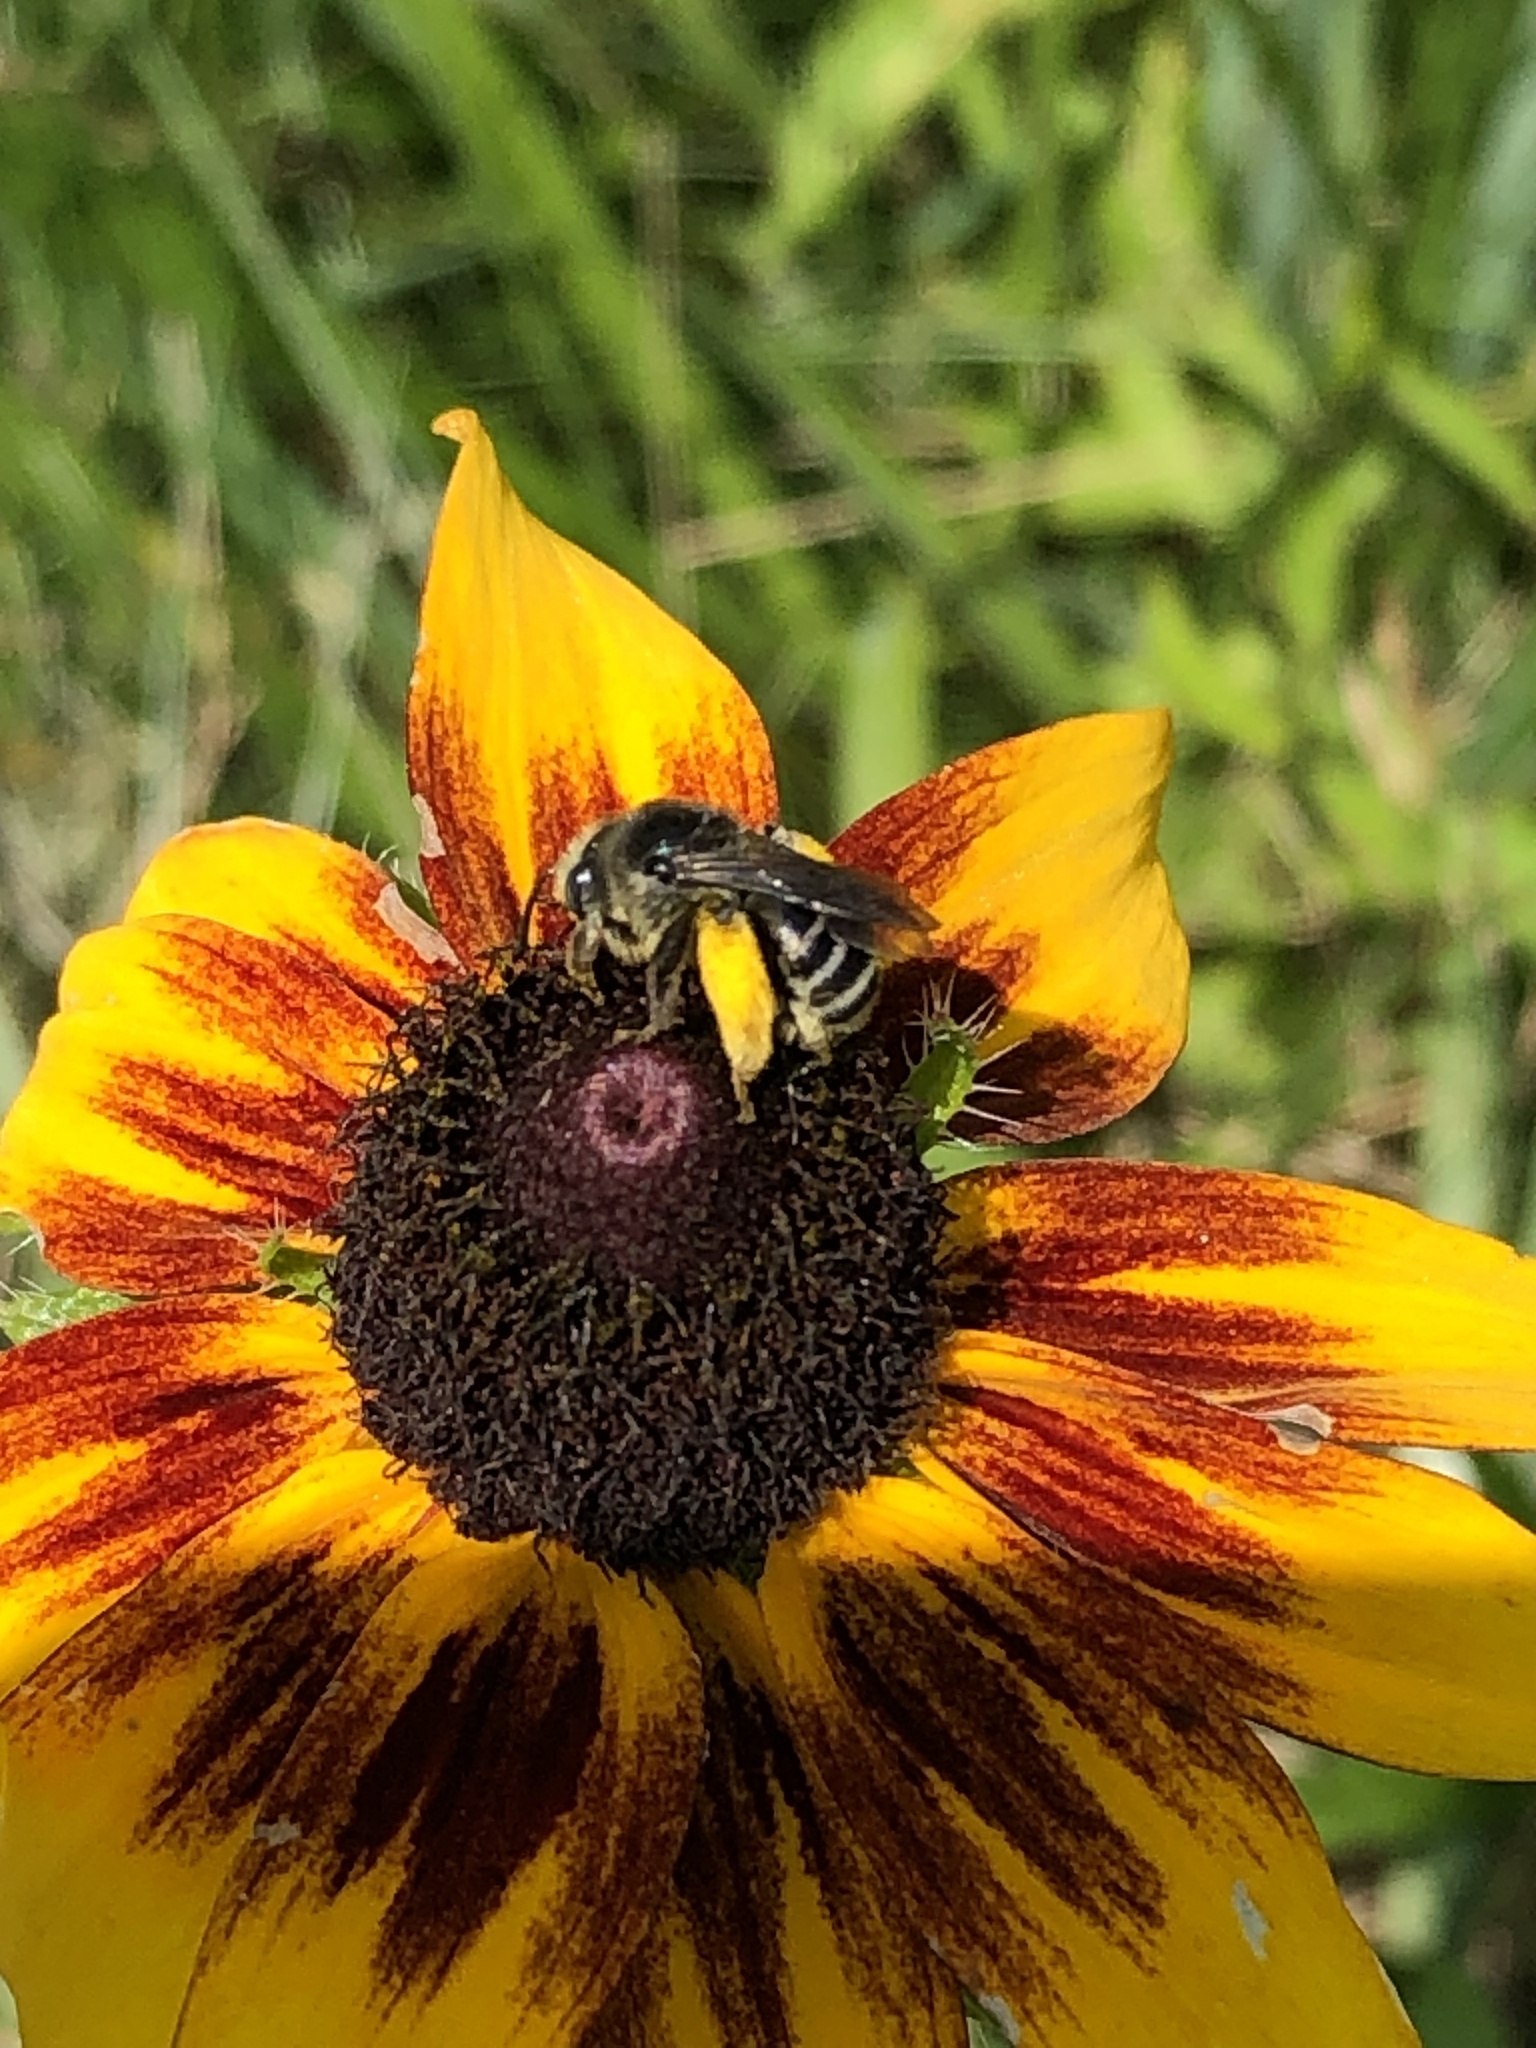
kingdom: Animalia
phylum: Arthropoda
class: Insecta
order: Hymenoptera
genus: Eumelissodes
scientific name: Eumelissodes
